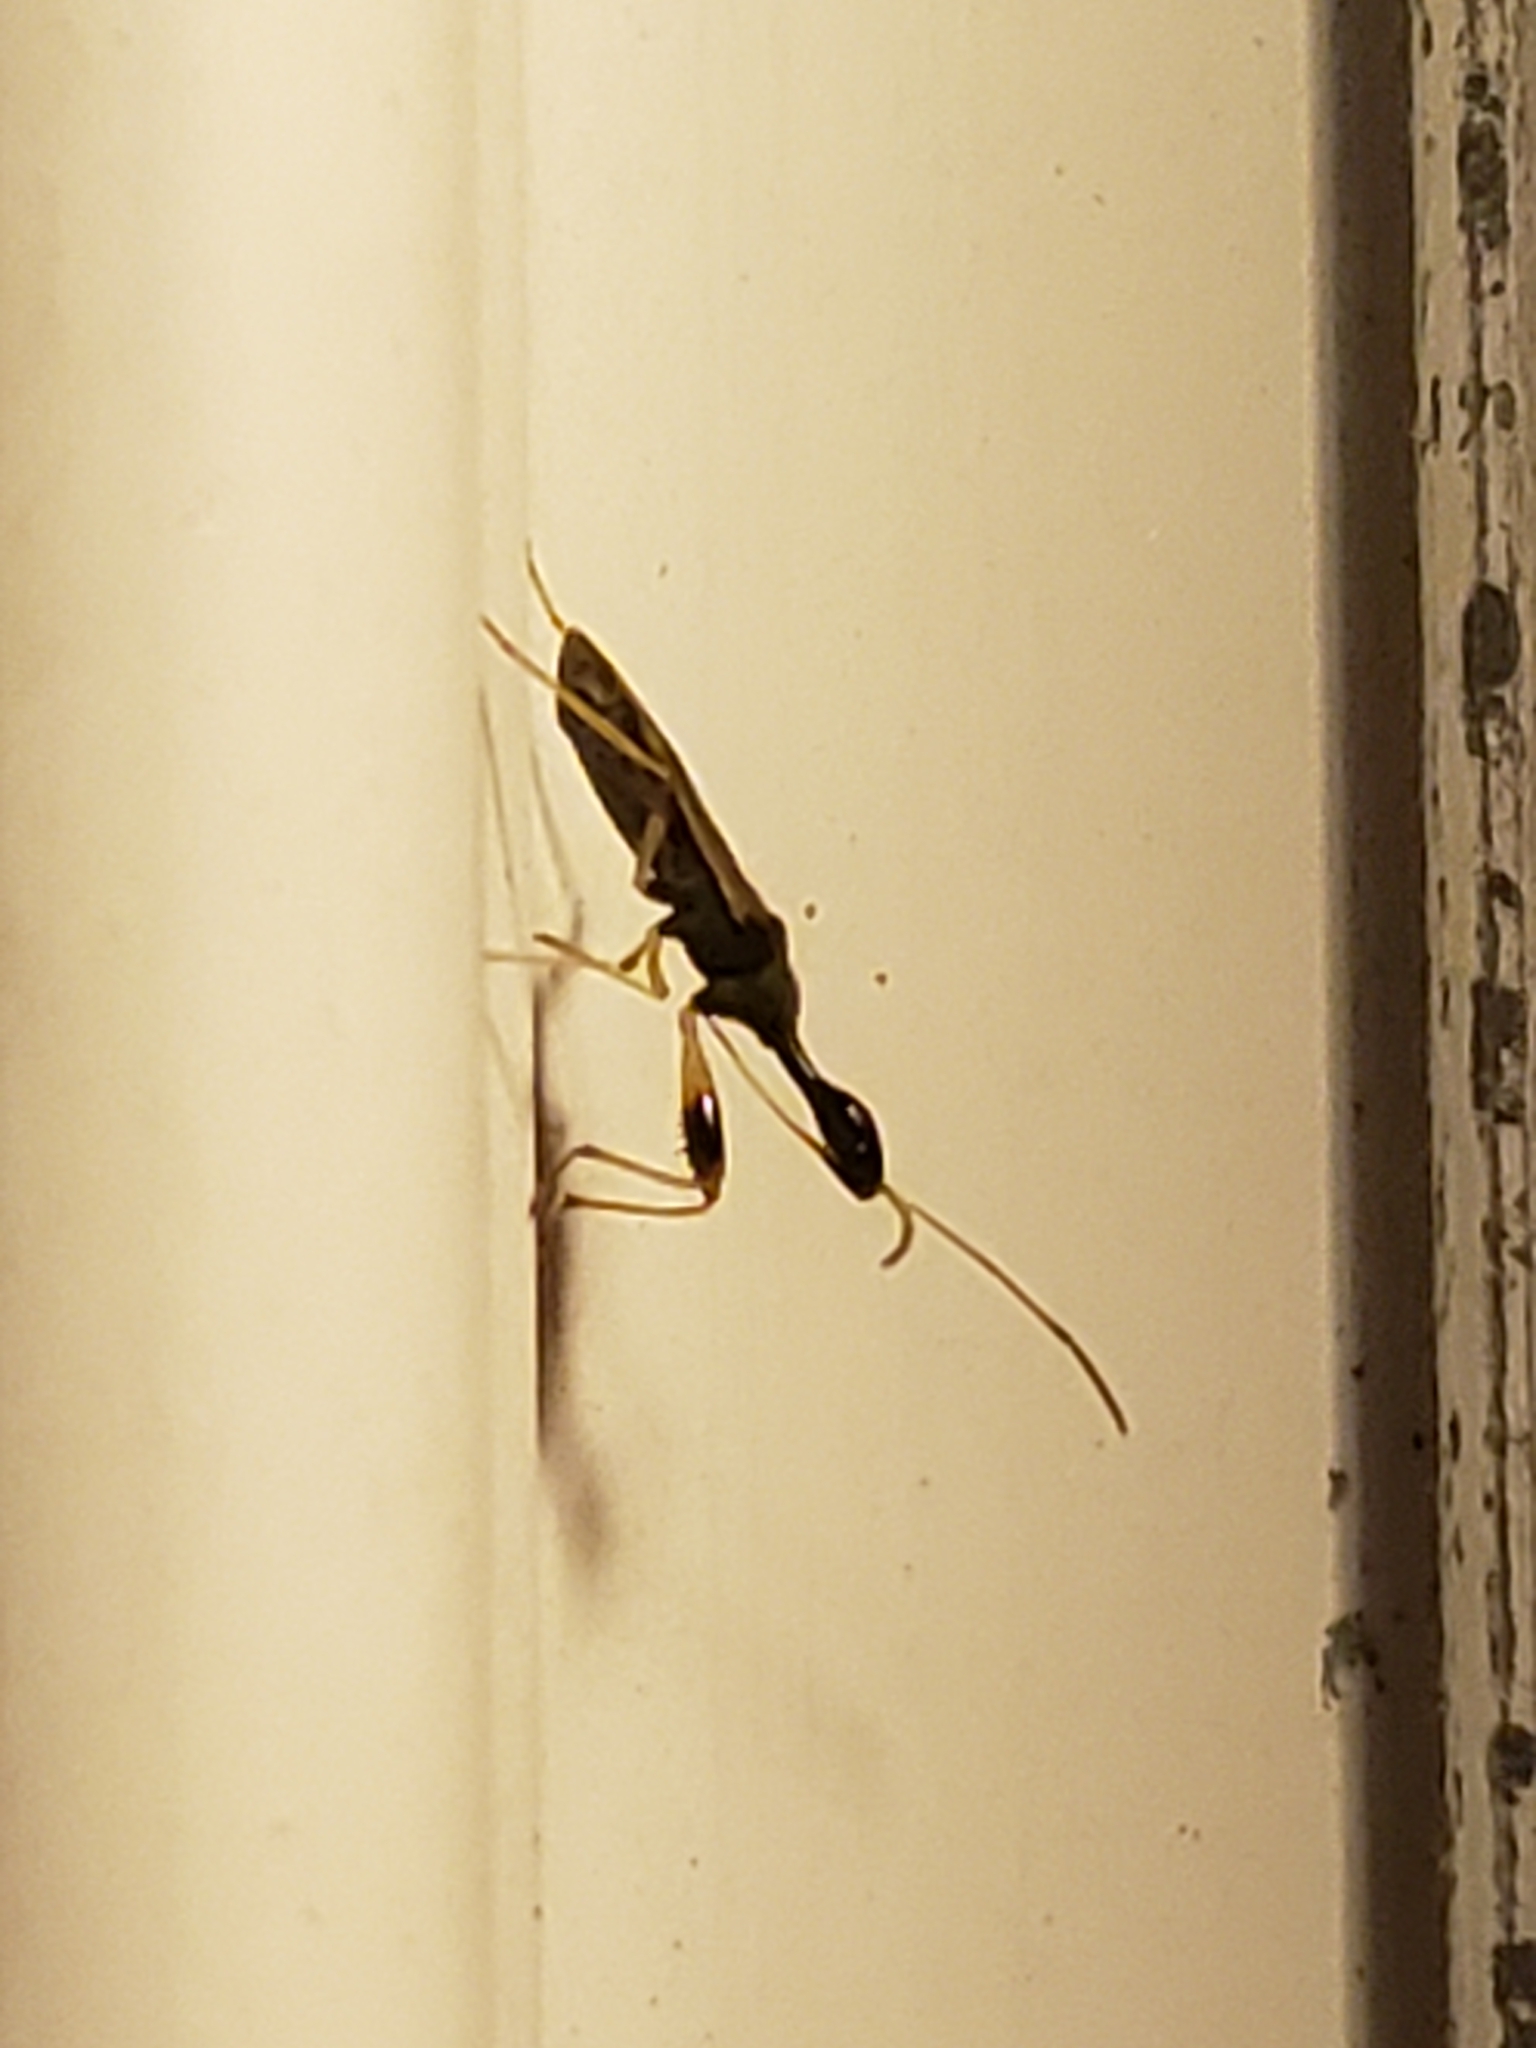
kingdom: Animalia
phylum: Arthropoda
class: Insecta
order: Hemiptera
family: Rhyparochromidae
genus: Myodocha
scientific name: Myodocha serripes
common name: Long-necked seed bug
